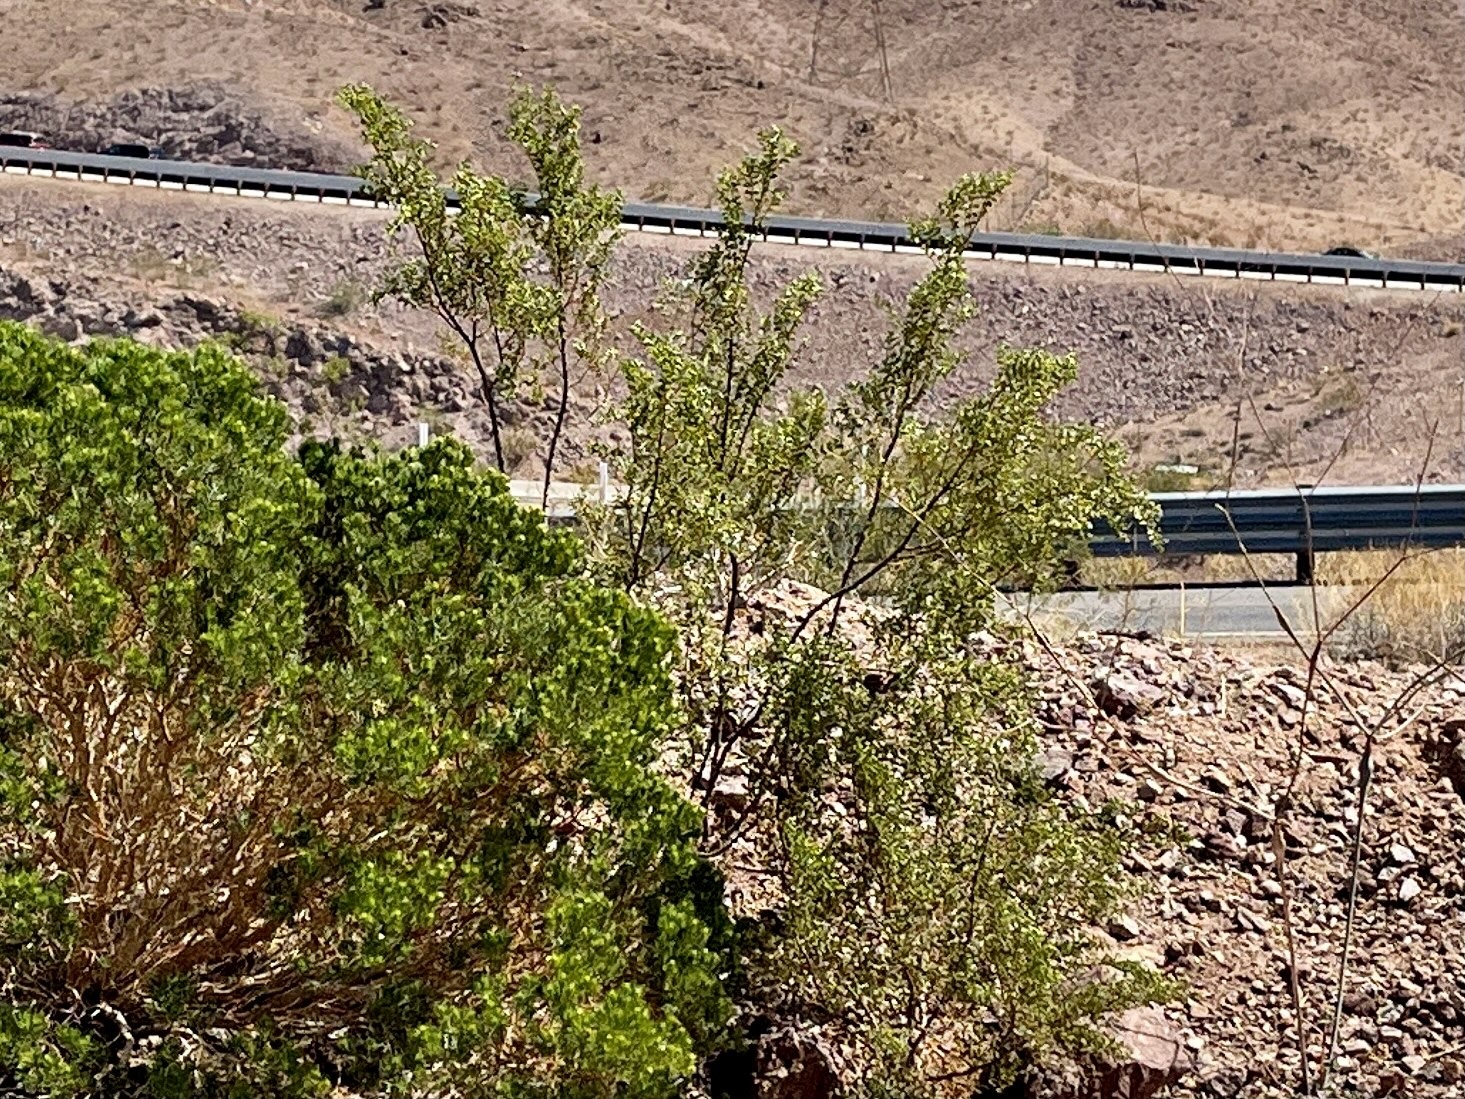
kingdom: Plantae
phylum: Tracheophyta
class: Magnoliopsida
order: Zygophyllales
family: Zygophyllaceae
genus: Larrea
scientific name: Larrea tridentata
